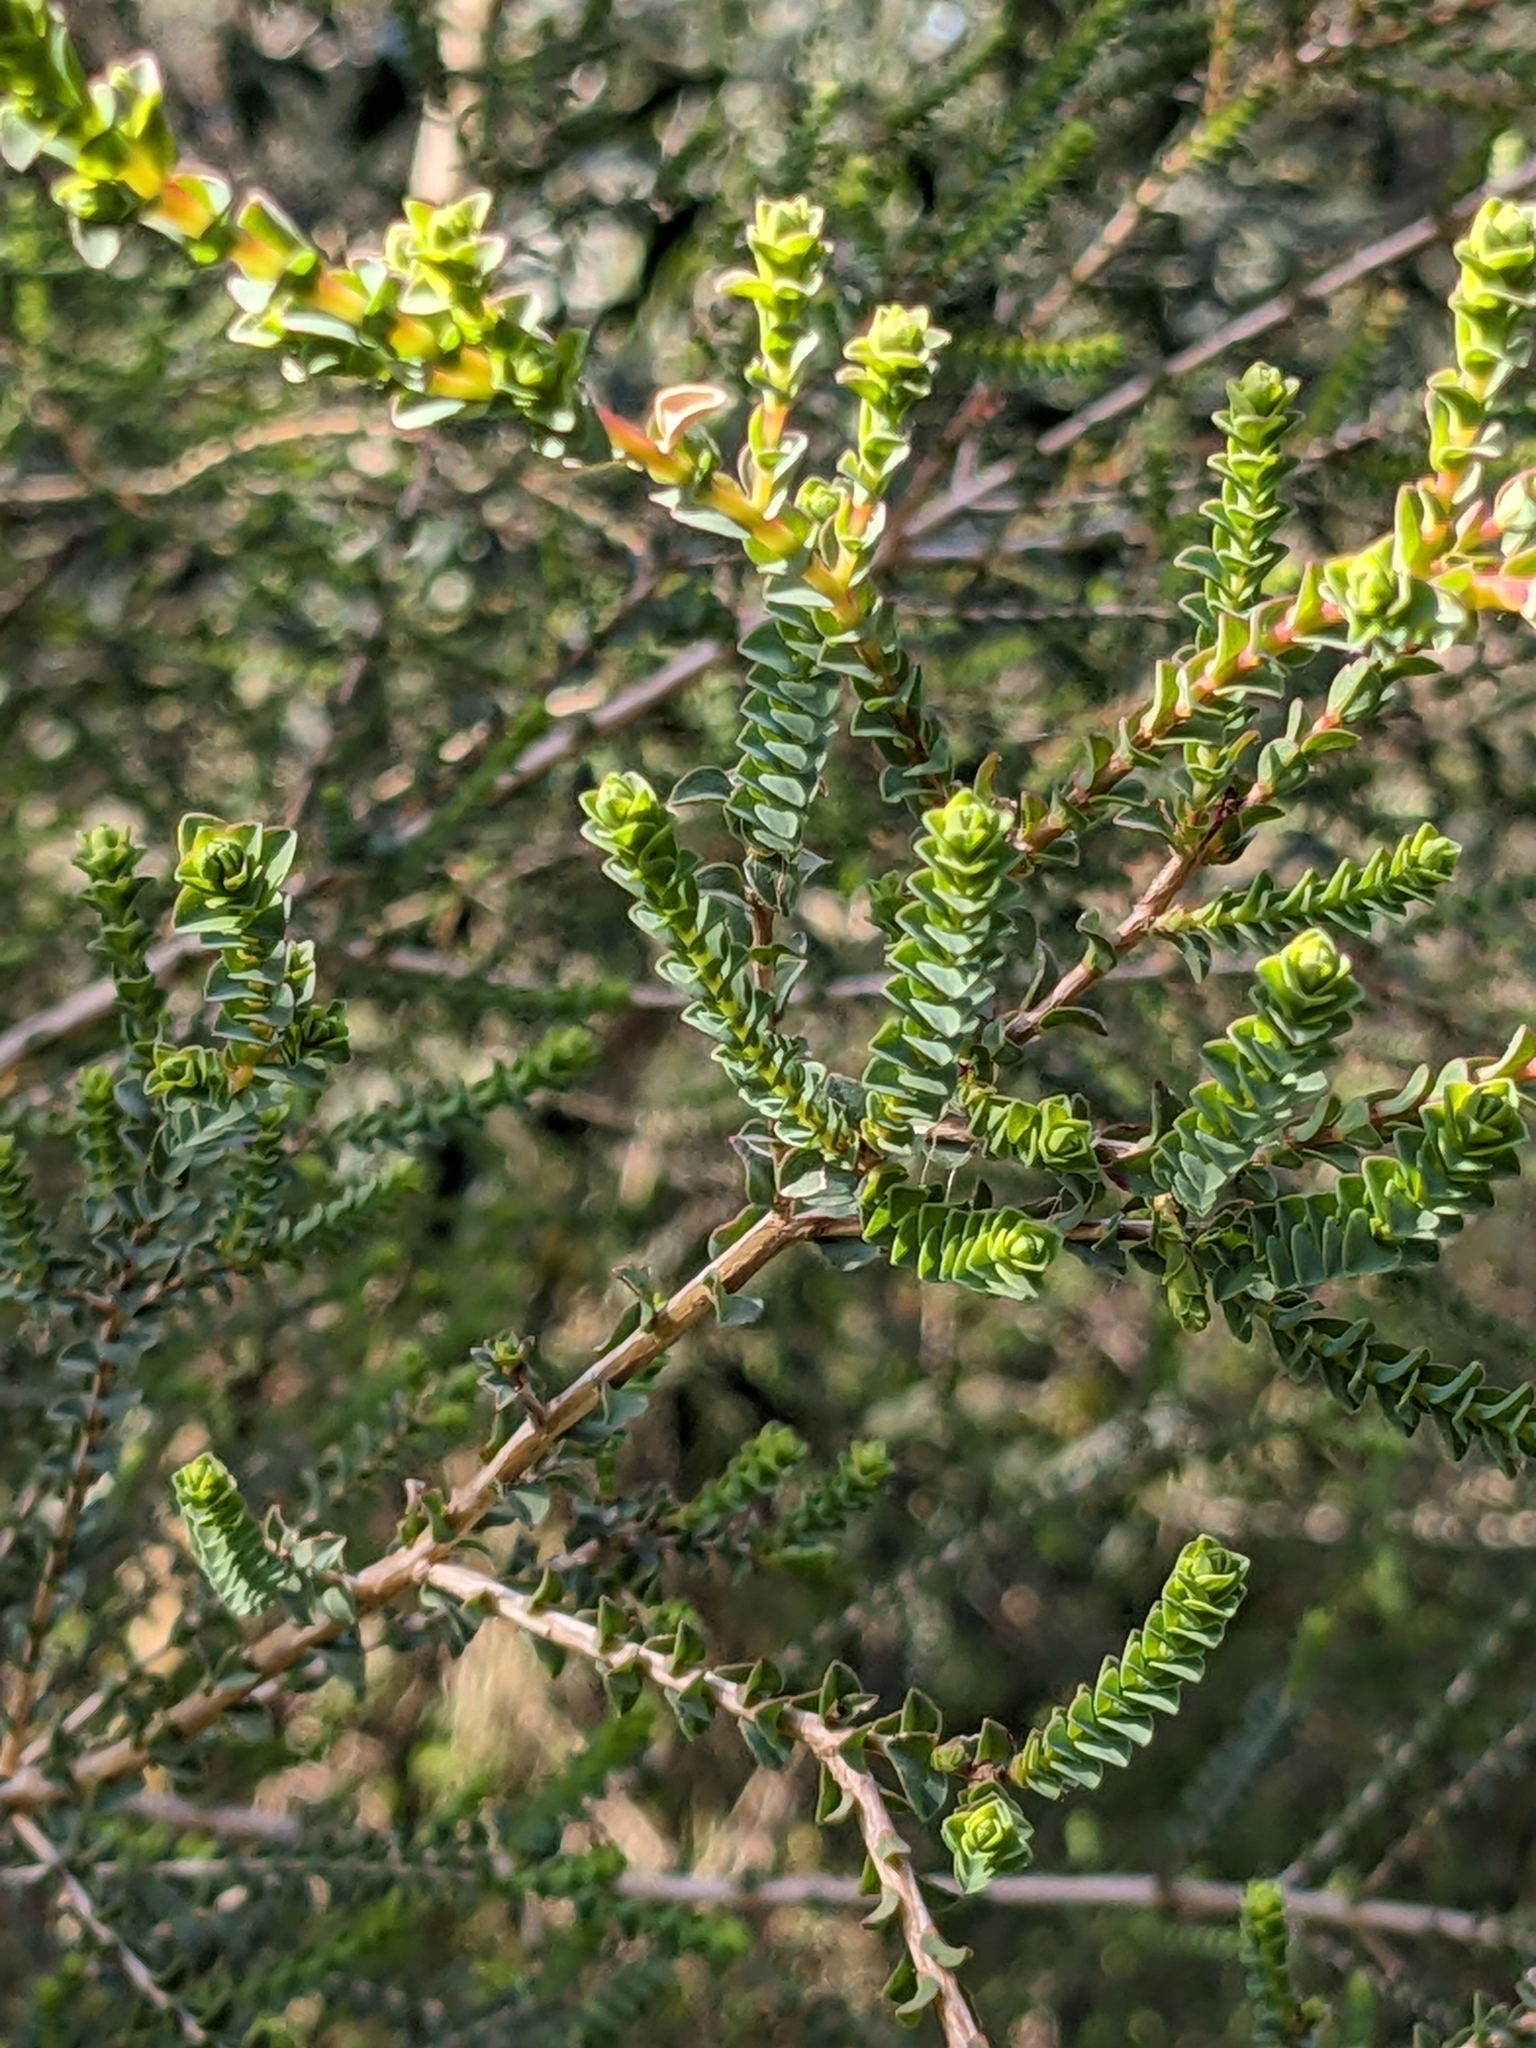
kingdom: Plantae
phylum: Tracheophyta
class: Magnoliopsida
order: Myrtales
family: Myrtaceae
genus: Melaleuca
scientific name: Melaleuca gibbosa
